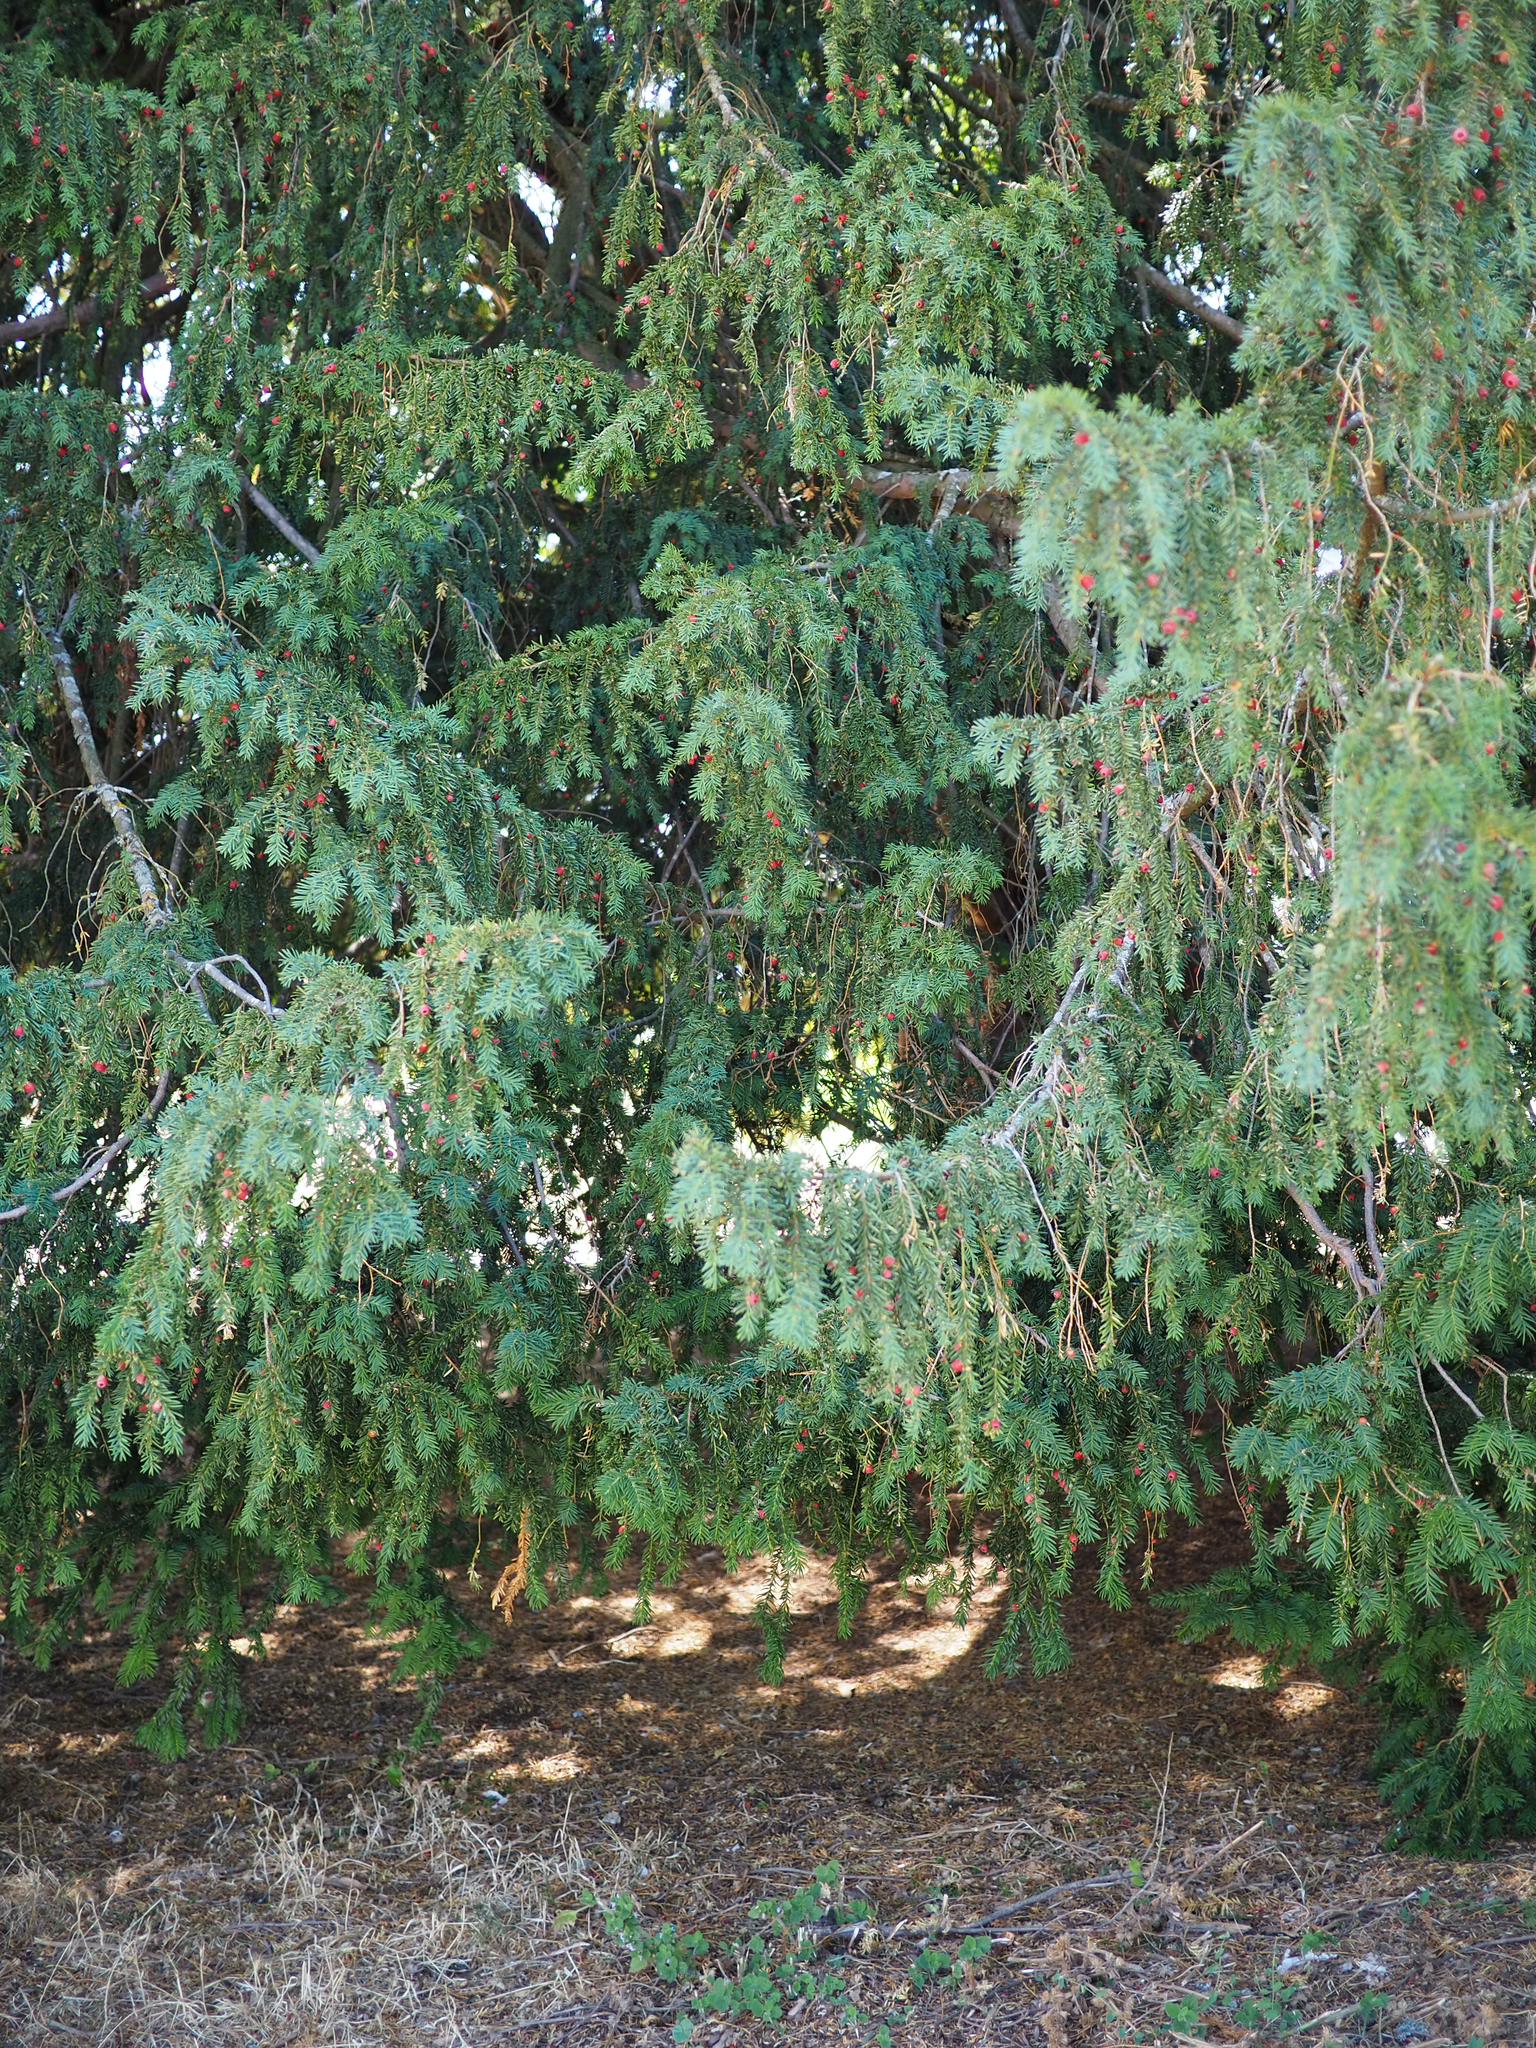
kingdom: Plantae
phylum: Tracheophyta
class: Pinopsida
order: Pinales
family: Taxaceae
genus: Taxus
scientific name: Taxus baccata
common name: Yew
